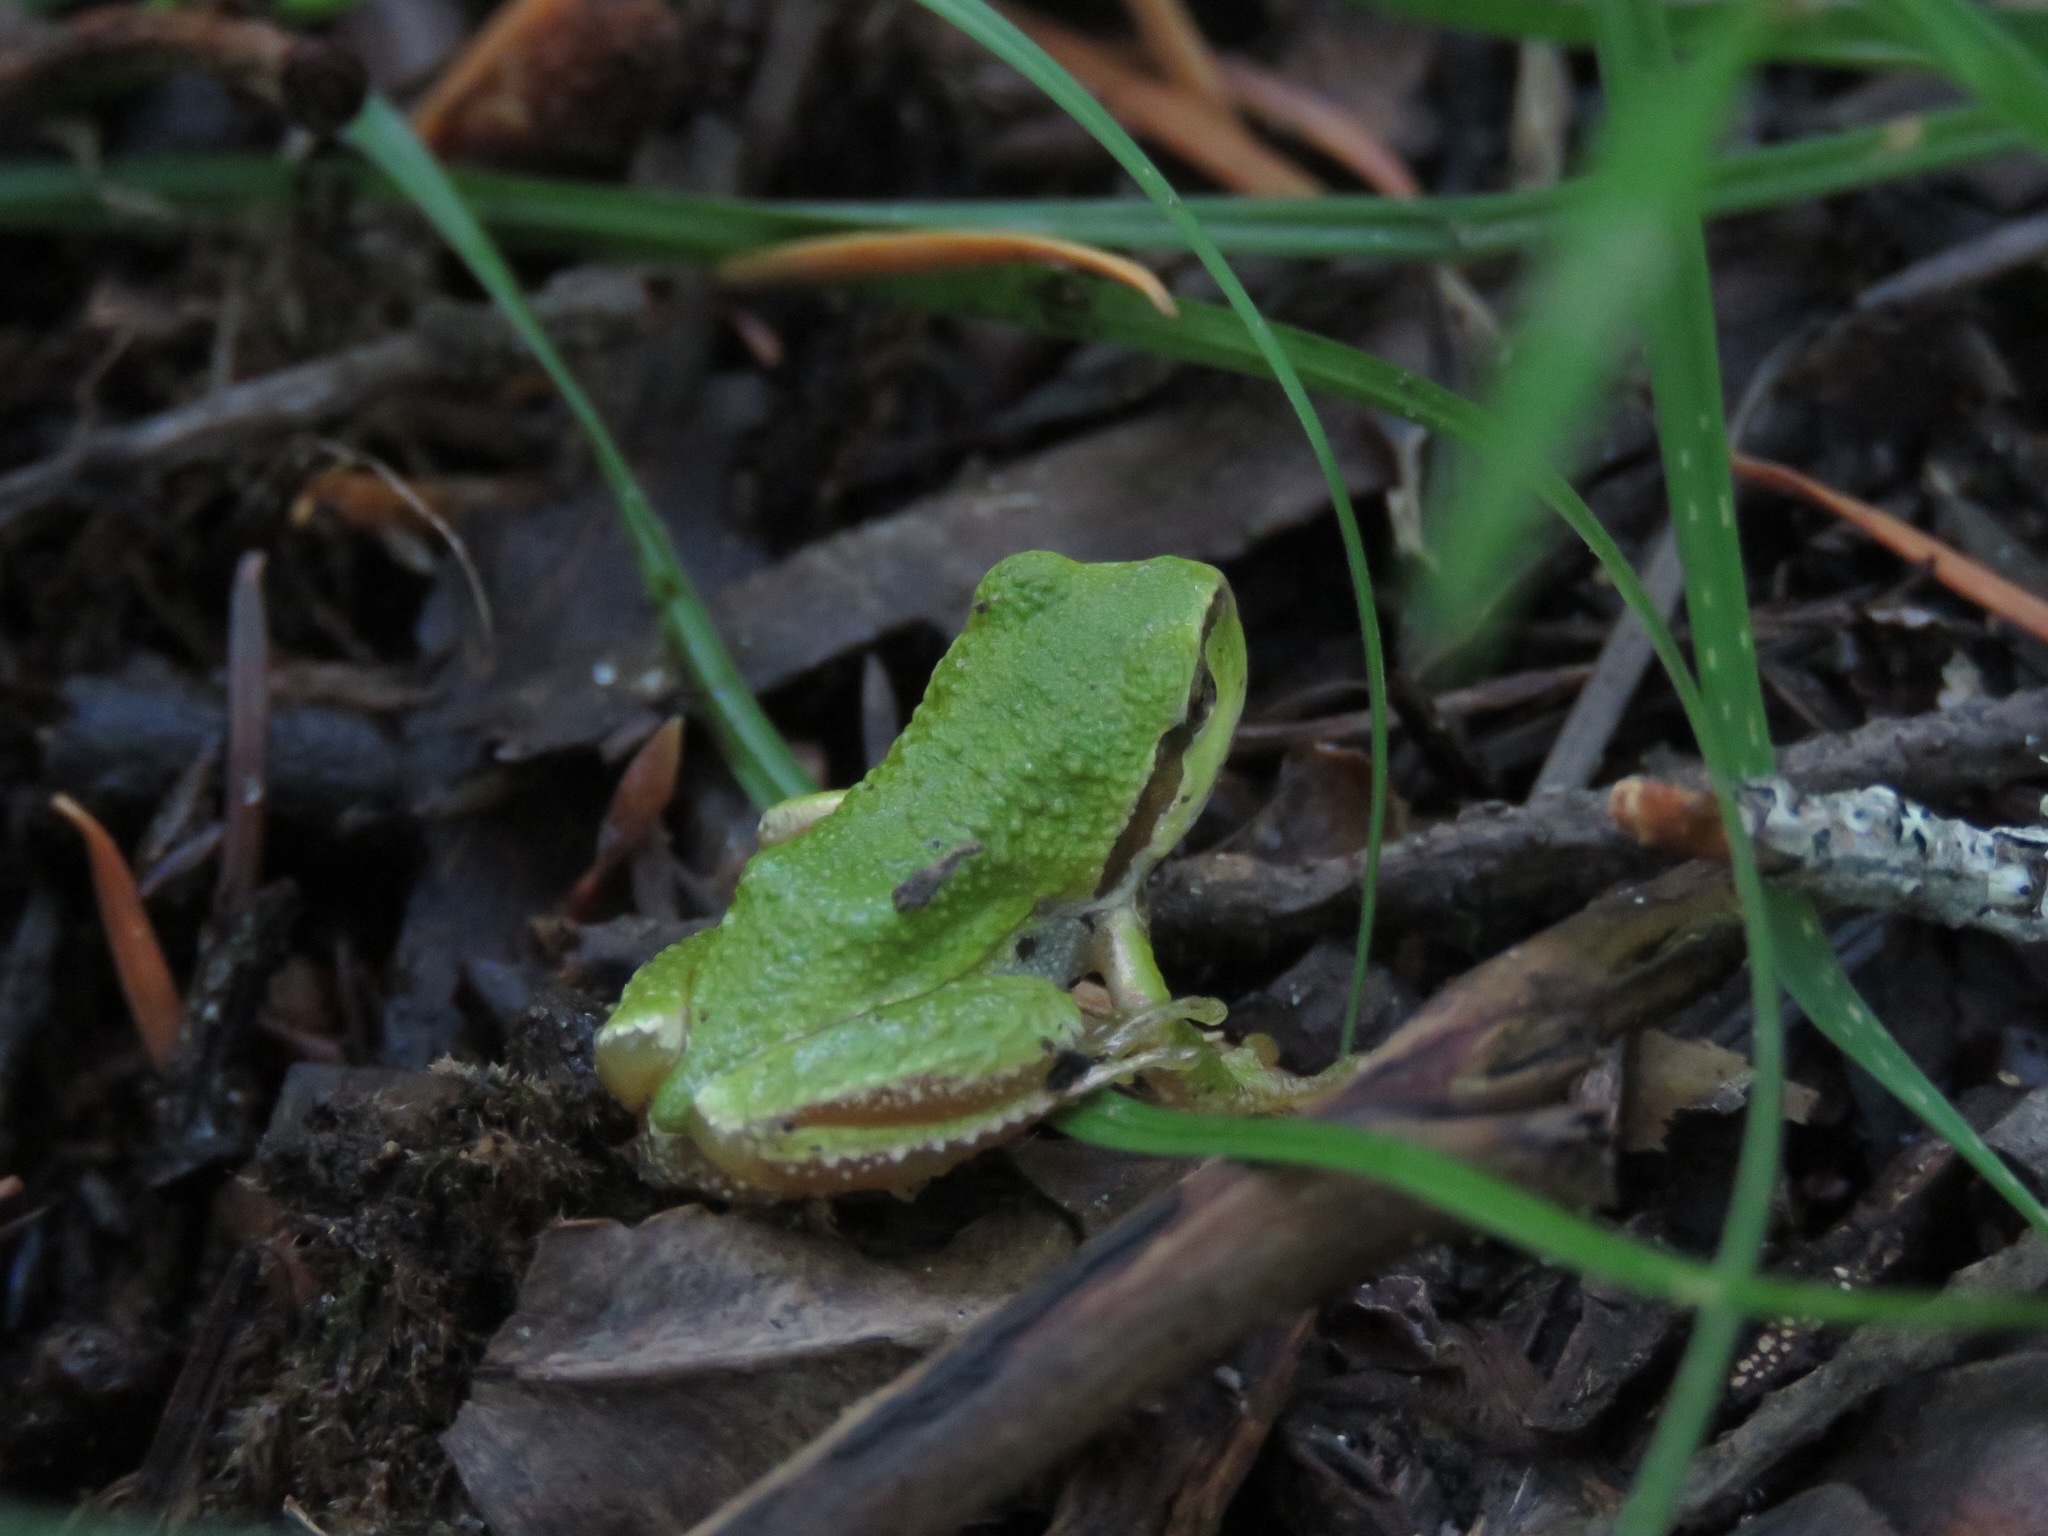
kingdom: Animalia
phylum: Chordata
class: Amphibia
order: Anura
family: Hylidae
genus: Pseudacris
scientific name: Pseudacris regilla
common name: Pacific chorus frog
